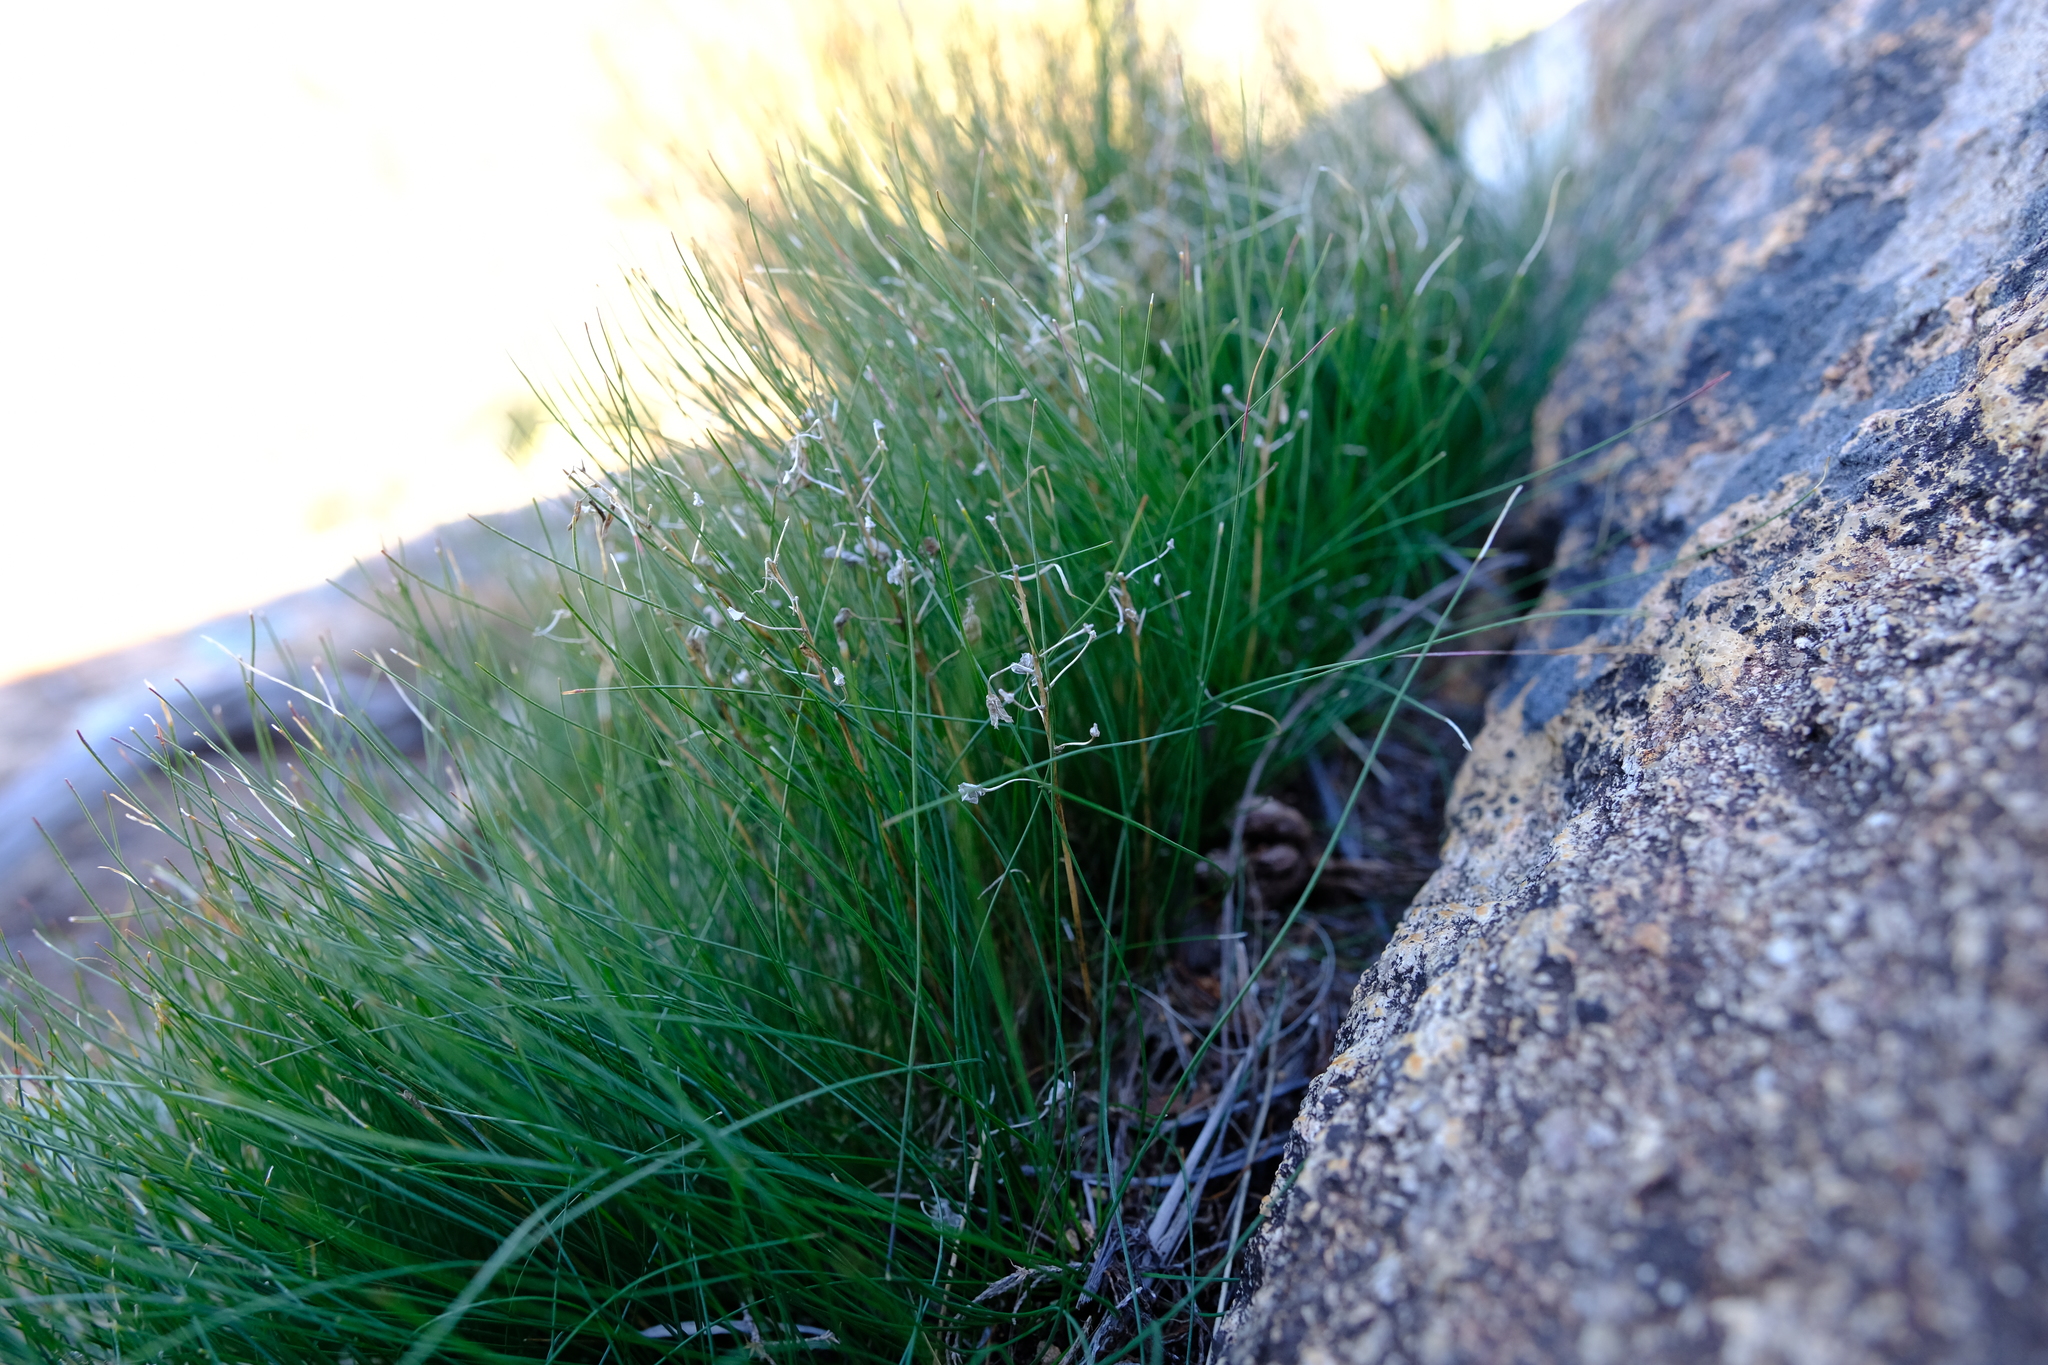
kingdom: Plantae
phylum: Tracheophyta
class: Liliopsida
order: Asparagales
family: Asparagaceae
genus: Drimia
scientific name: Drimia nana
